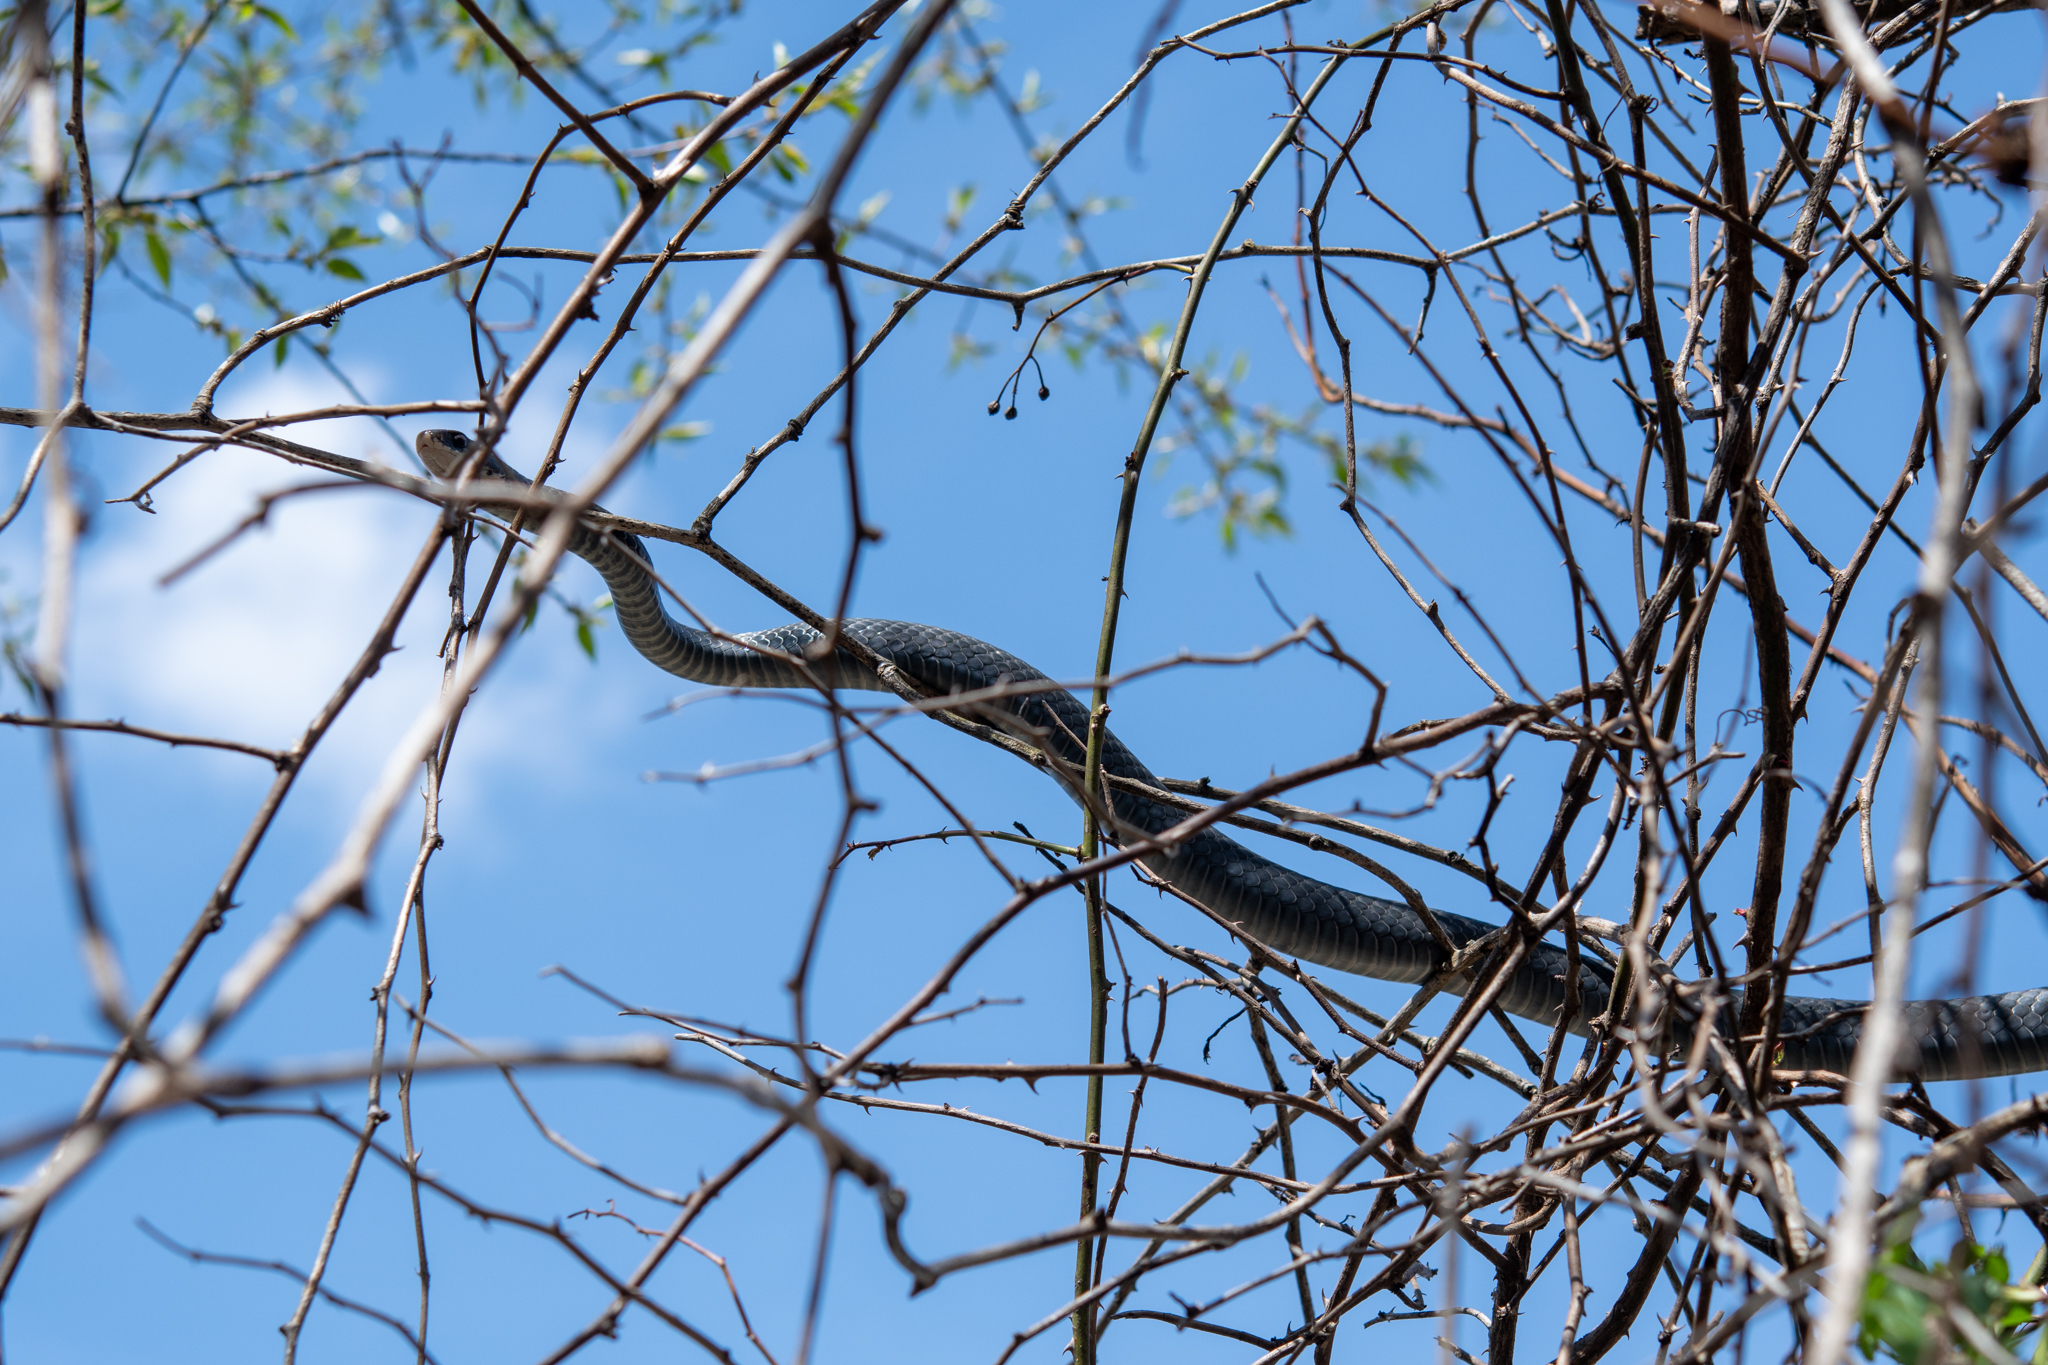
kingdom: Animalia
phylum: Chordata
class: Squamata
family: Colubridae
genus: Coluber
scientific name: Coluber constrictor
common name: Eastern racer
